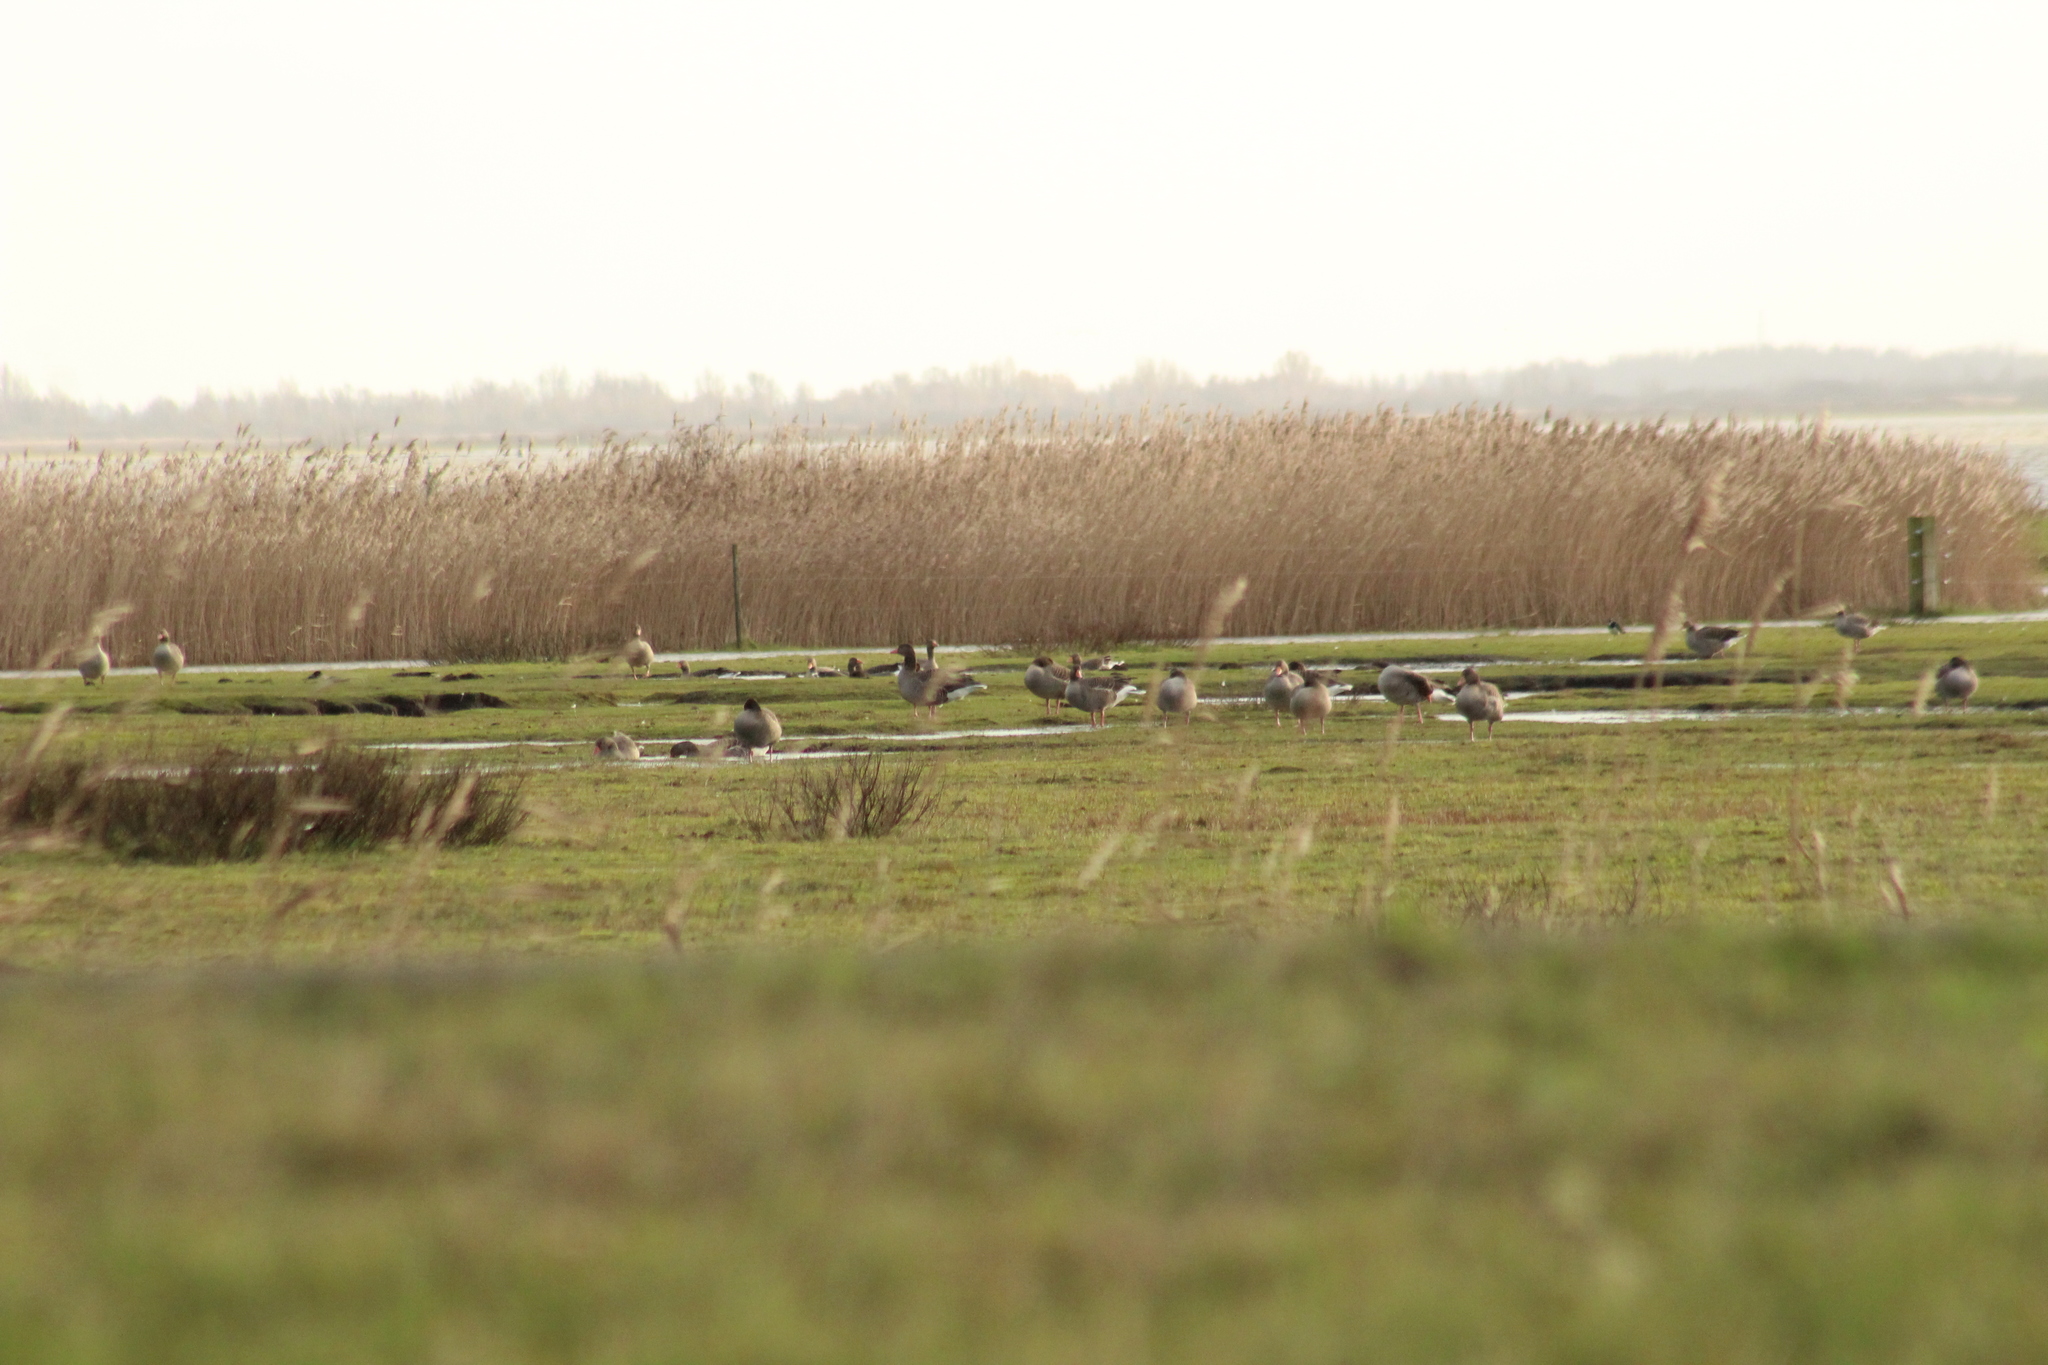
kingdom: Animalia
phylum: Chordata
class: Aves
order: Anseriformes
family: Anatidae
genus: Anser
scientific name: Anser anser
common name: Greylag goose
